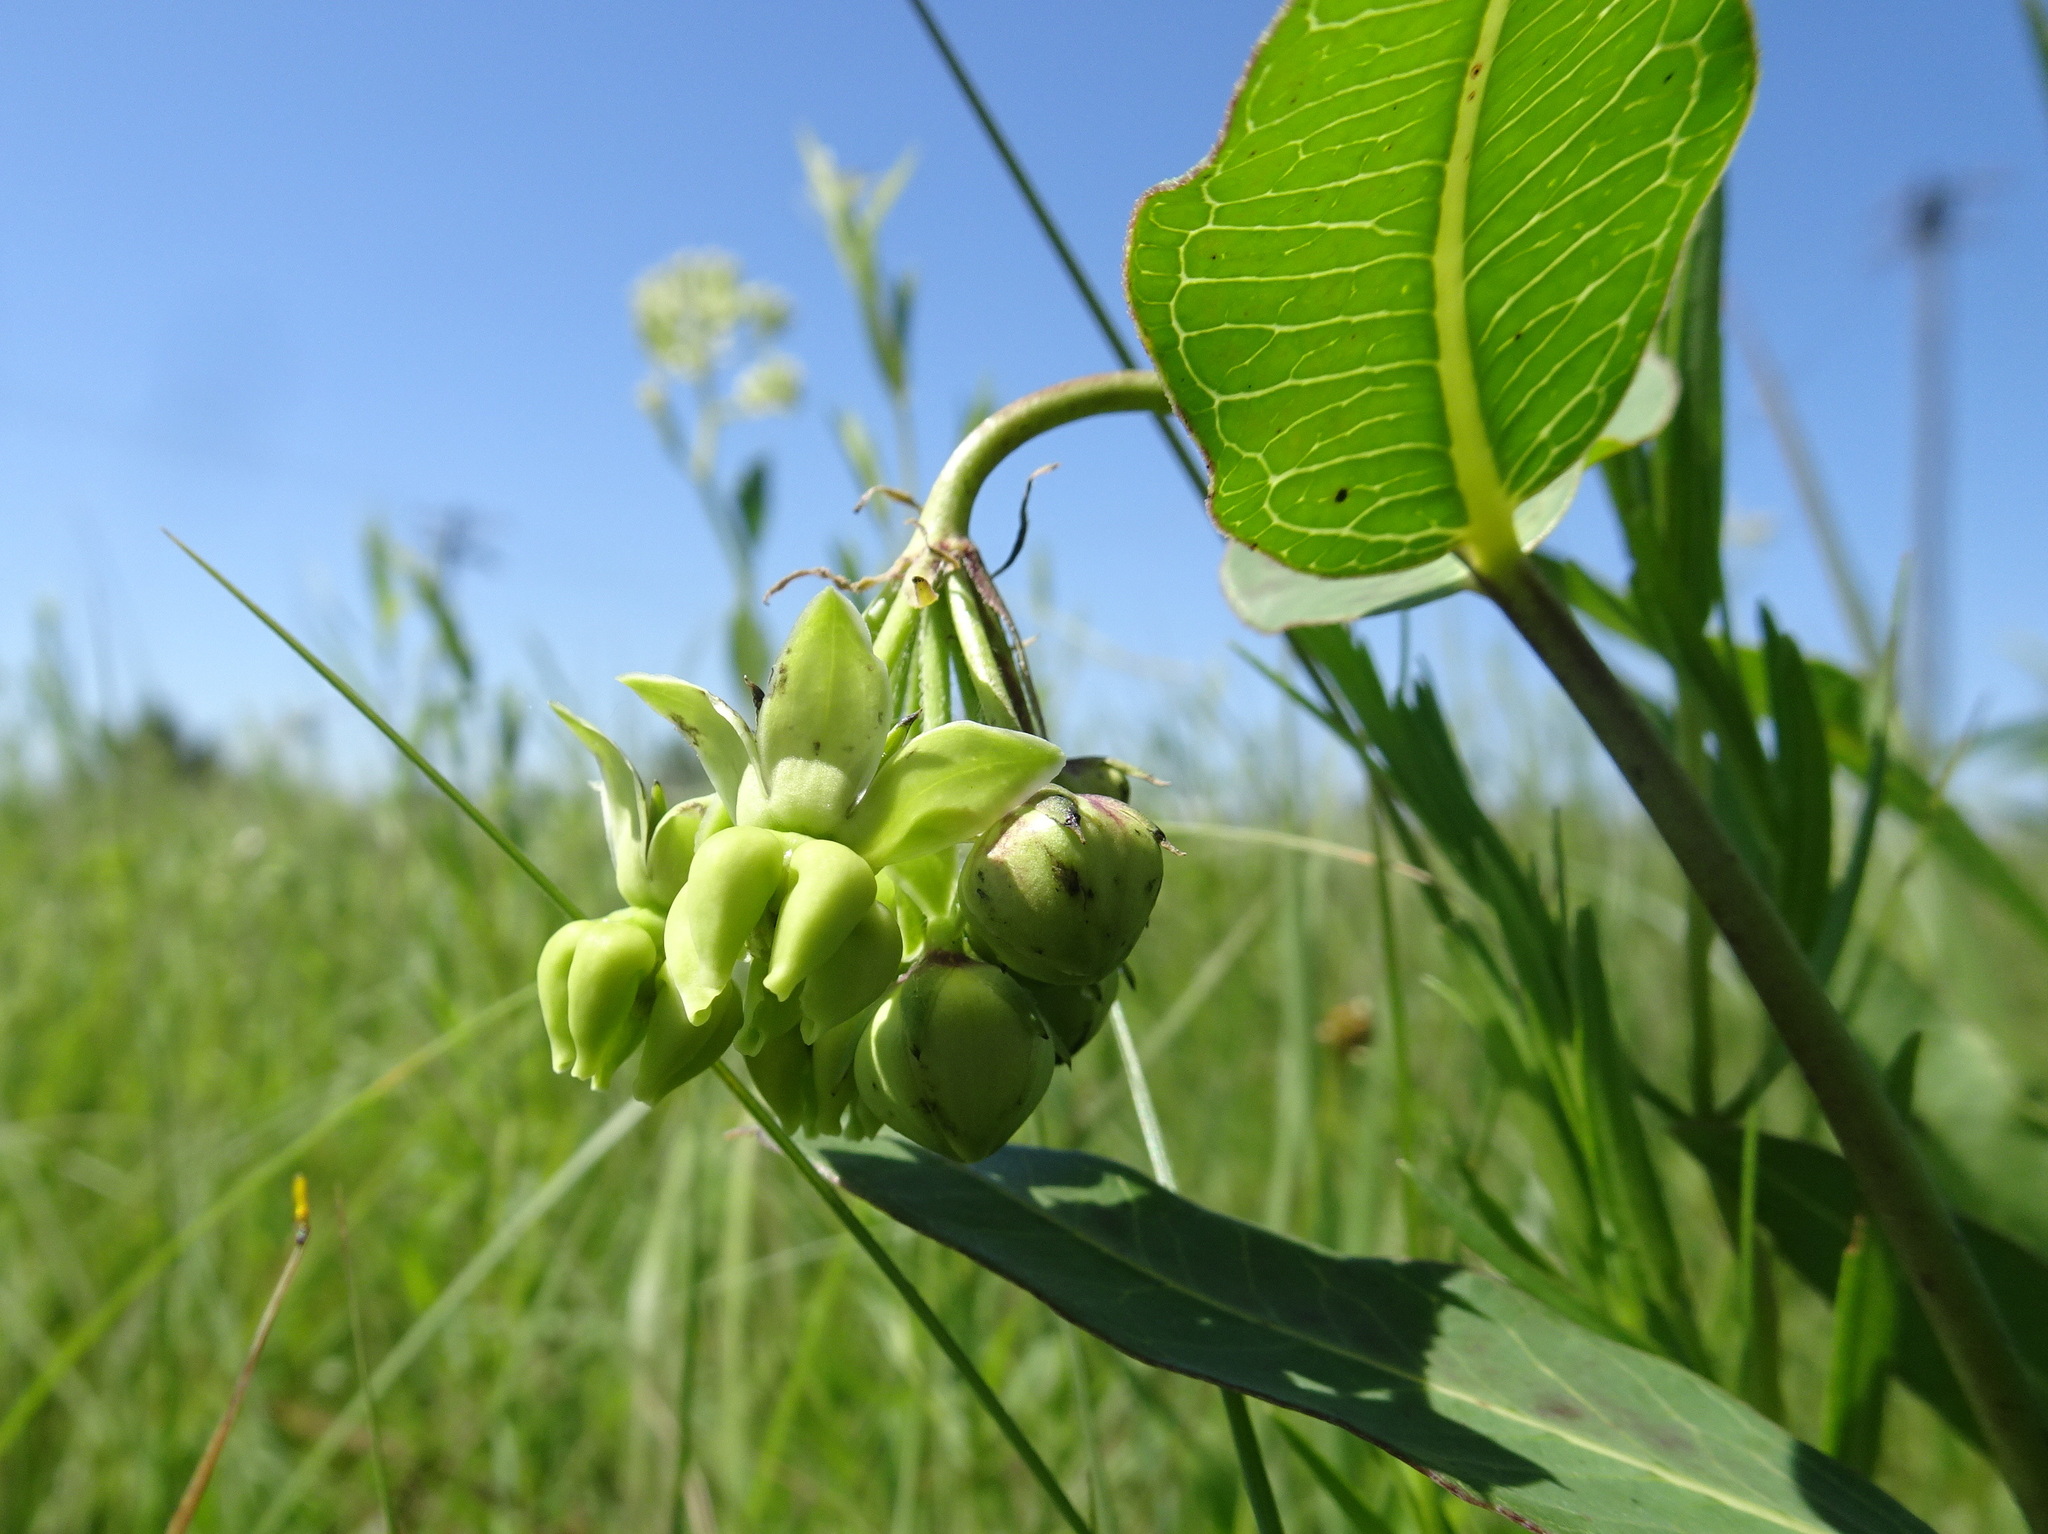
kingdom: Plantae
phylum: Tracheophyta
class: Magnoliopsida
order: Gentianales
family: Apocynaceae
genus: Asclepias
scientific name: Asclepias meadii
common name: Mead's milkweed
